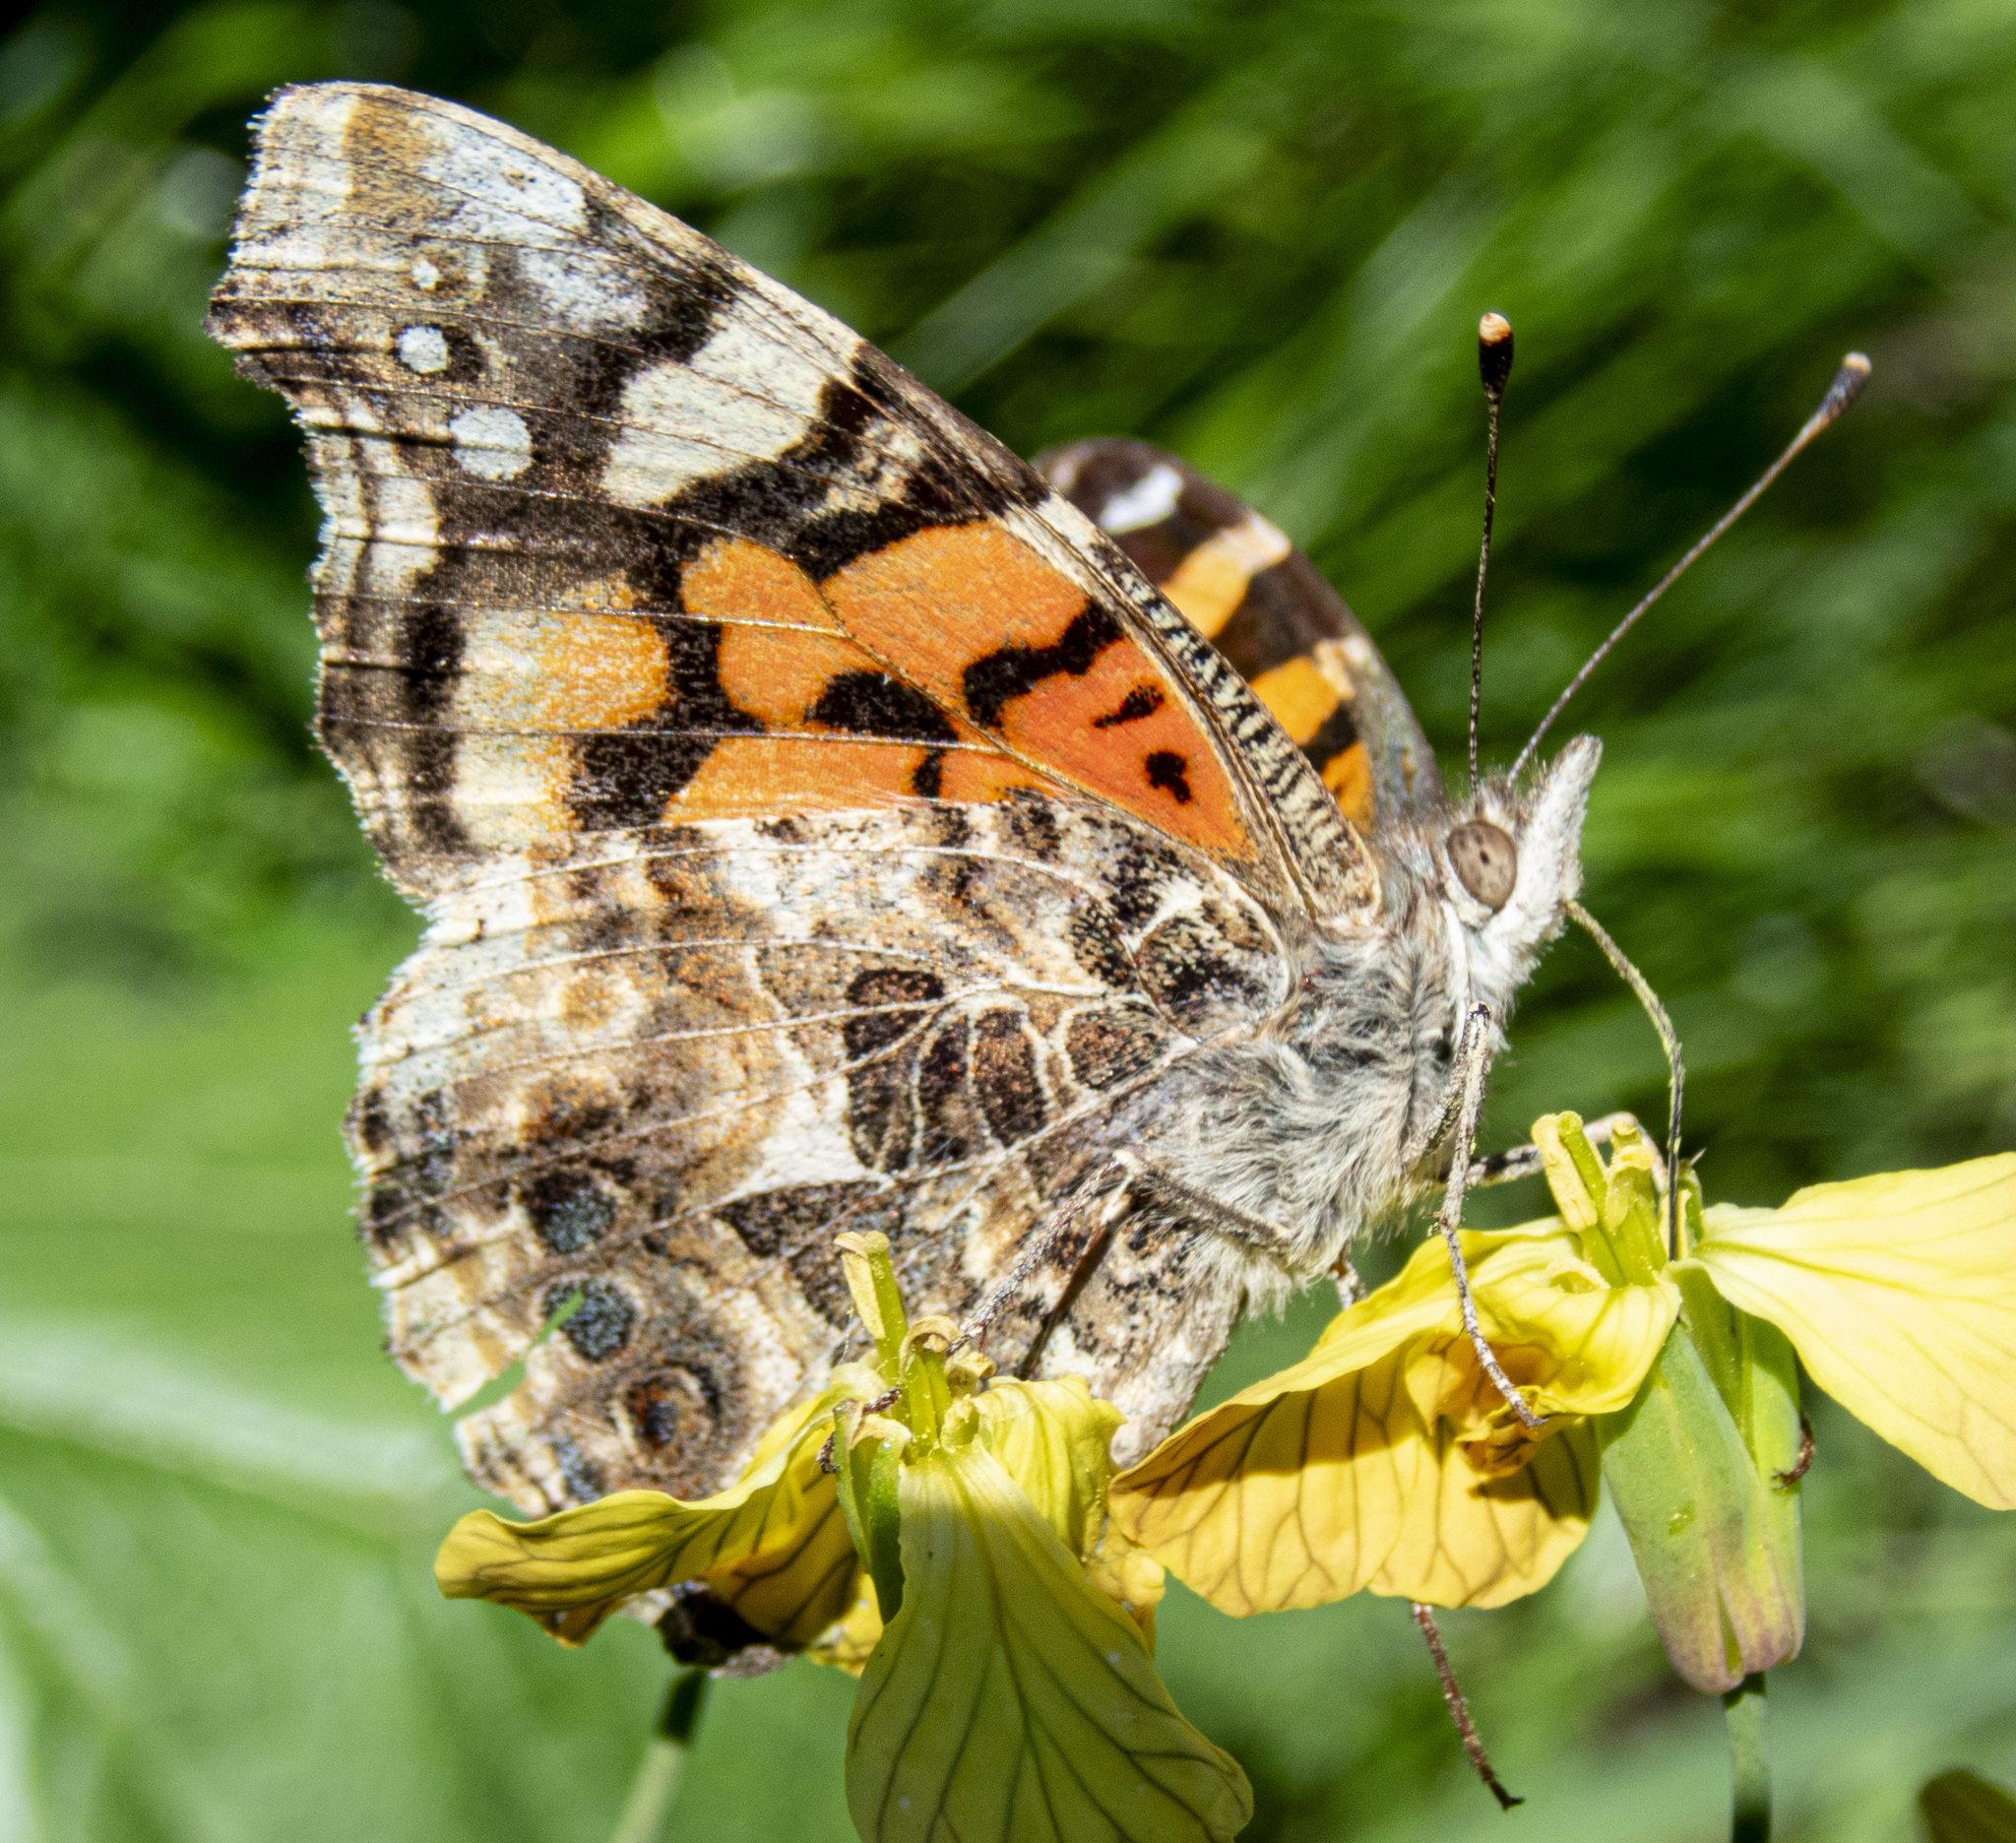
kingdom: Animalia
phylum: Arthropoda
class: Insecta
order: Lepidoptera
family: Nymphalidae
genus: Vanessa
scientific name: Vanessa annabella
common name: West coast lady
